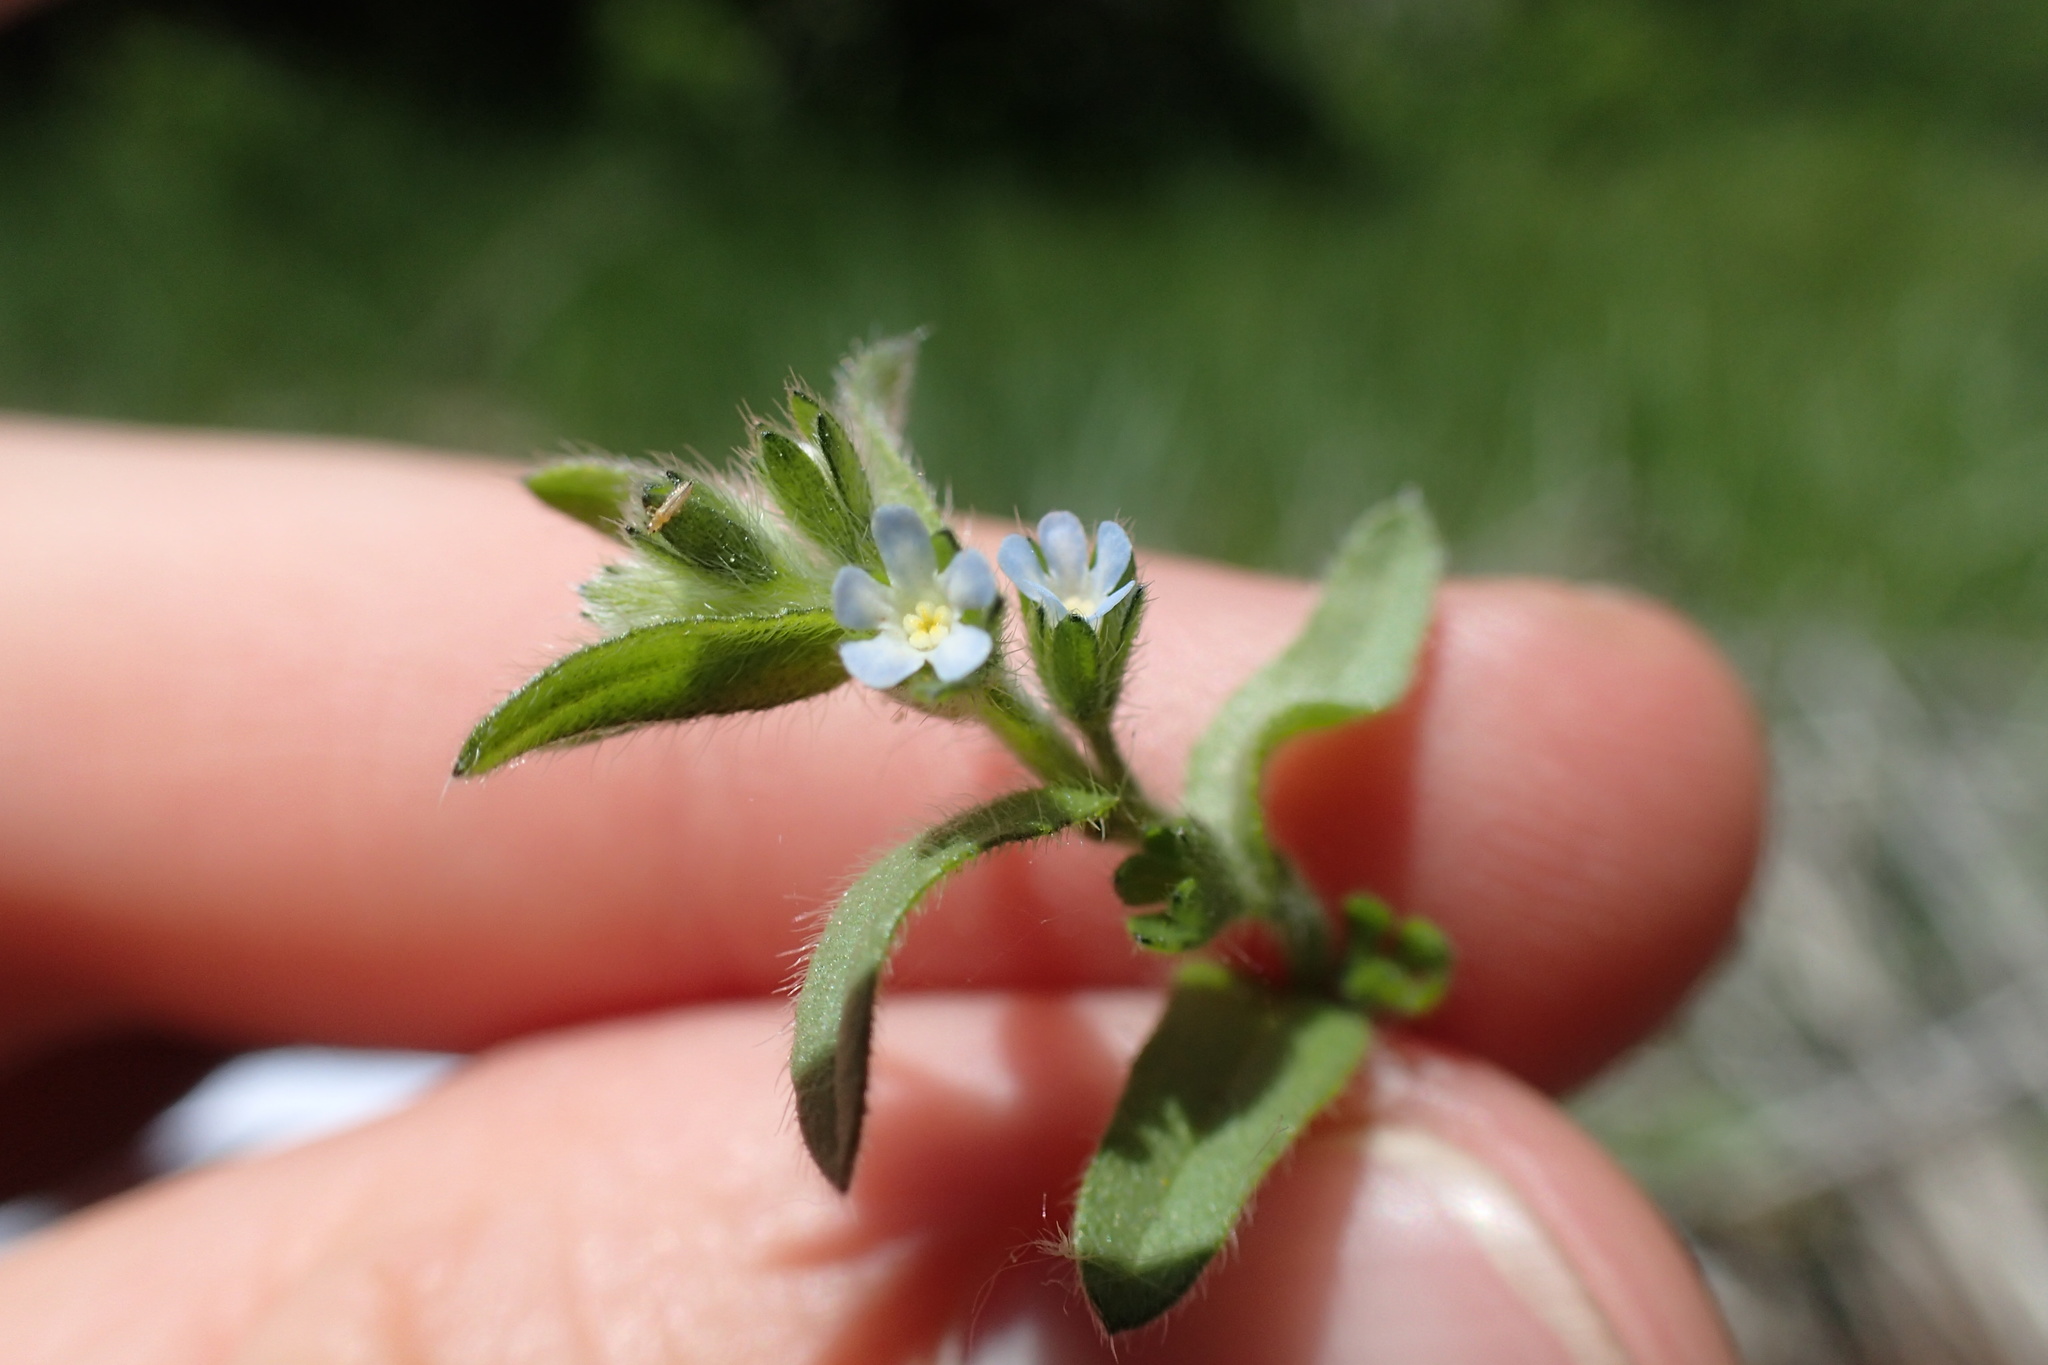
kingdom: Plantae
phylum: Tracheophyta
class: Magnoliopsida
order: Boraginales
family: Boraginaceae
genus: Lappula
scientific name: Lappula redowskii
